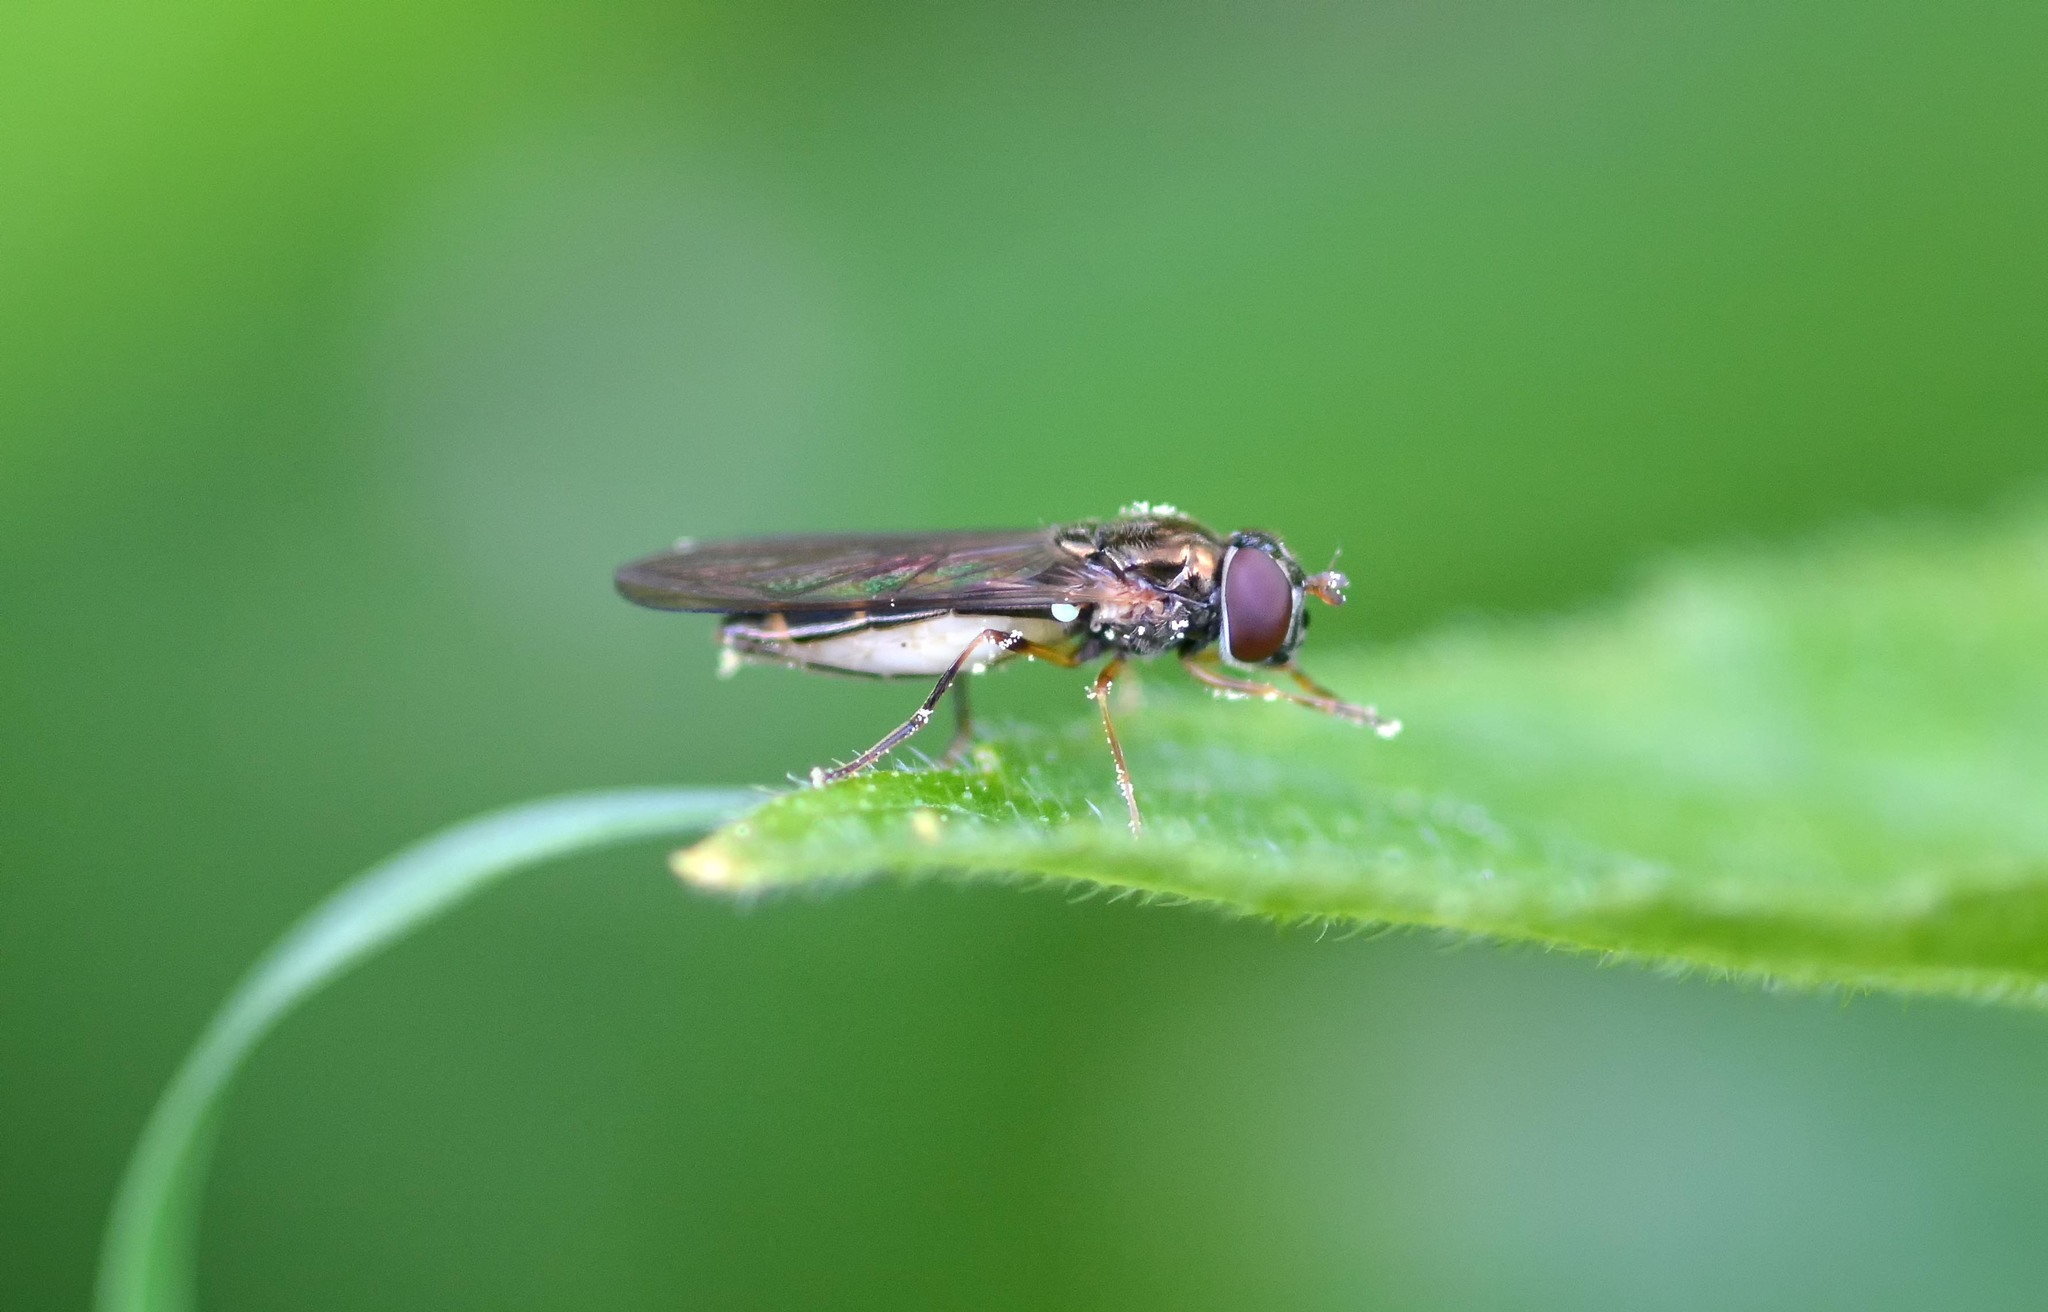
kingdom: Animalia
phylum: Arthropoda
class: Insecta
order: Diptera
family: Syrphidae
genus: Melanostoma
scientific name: Melanostoma scalare
